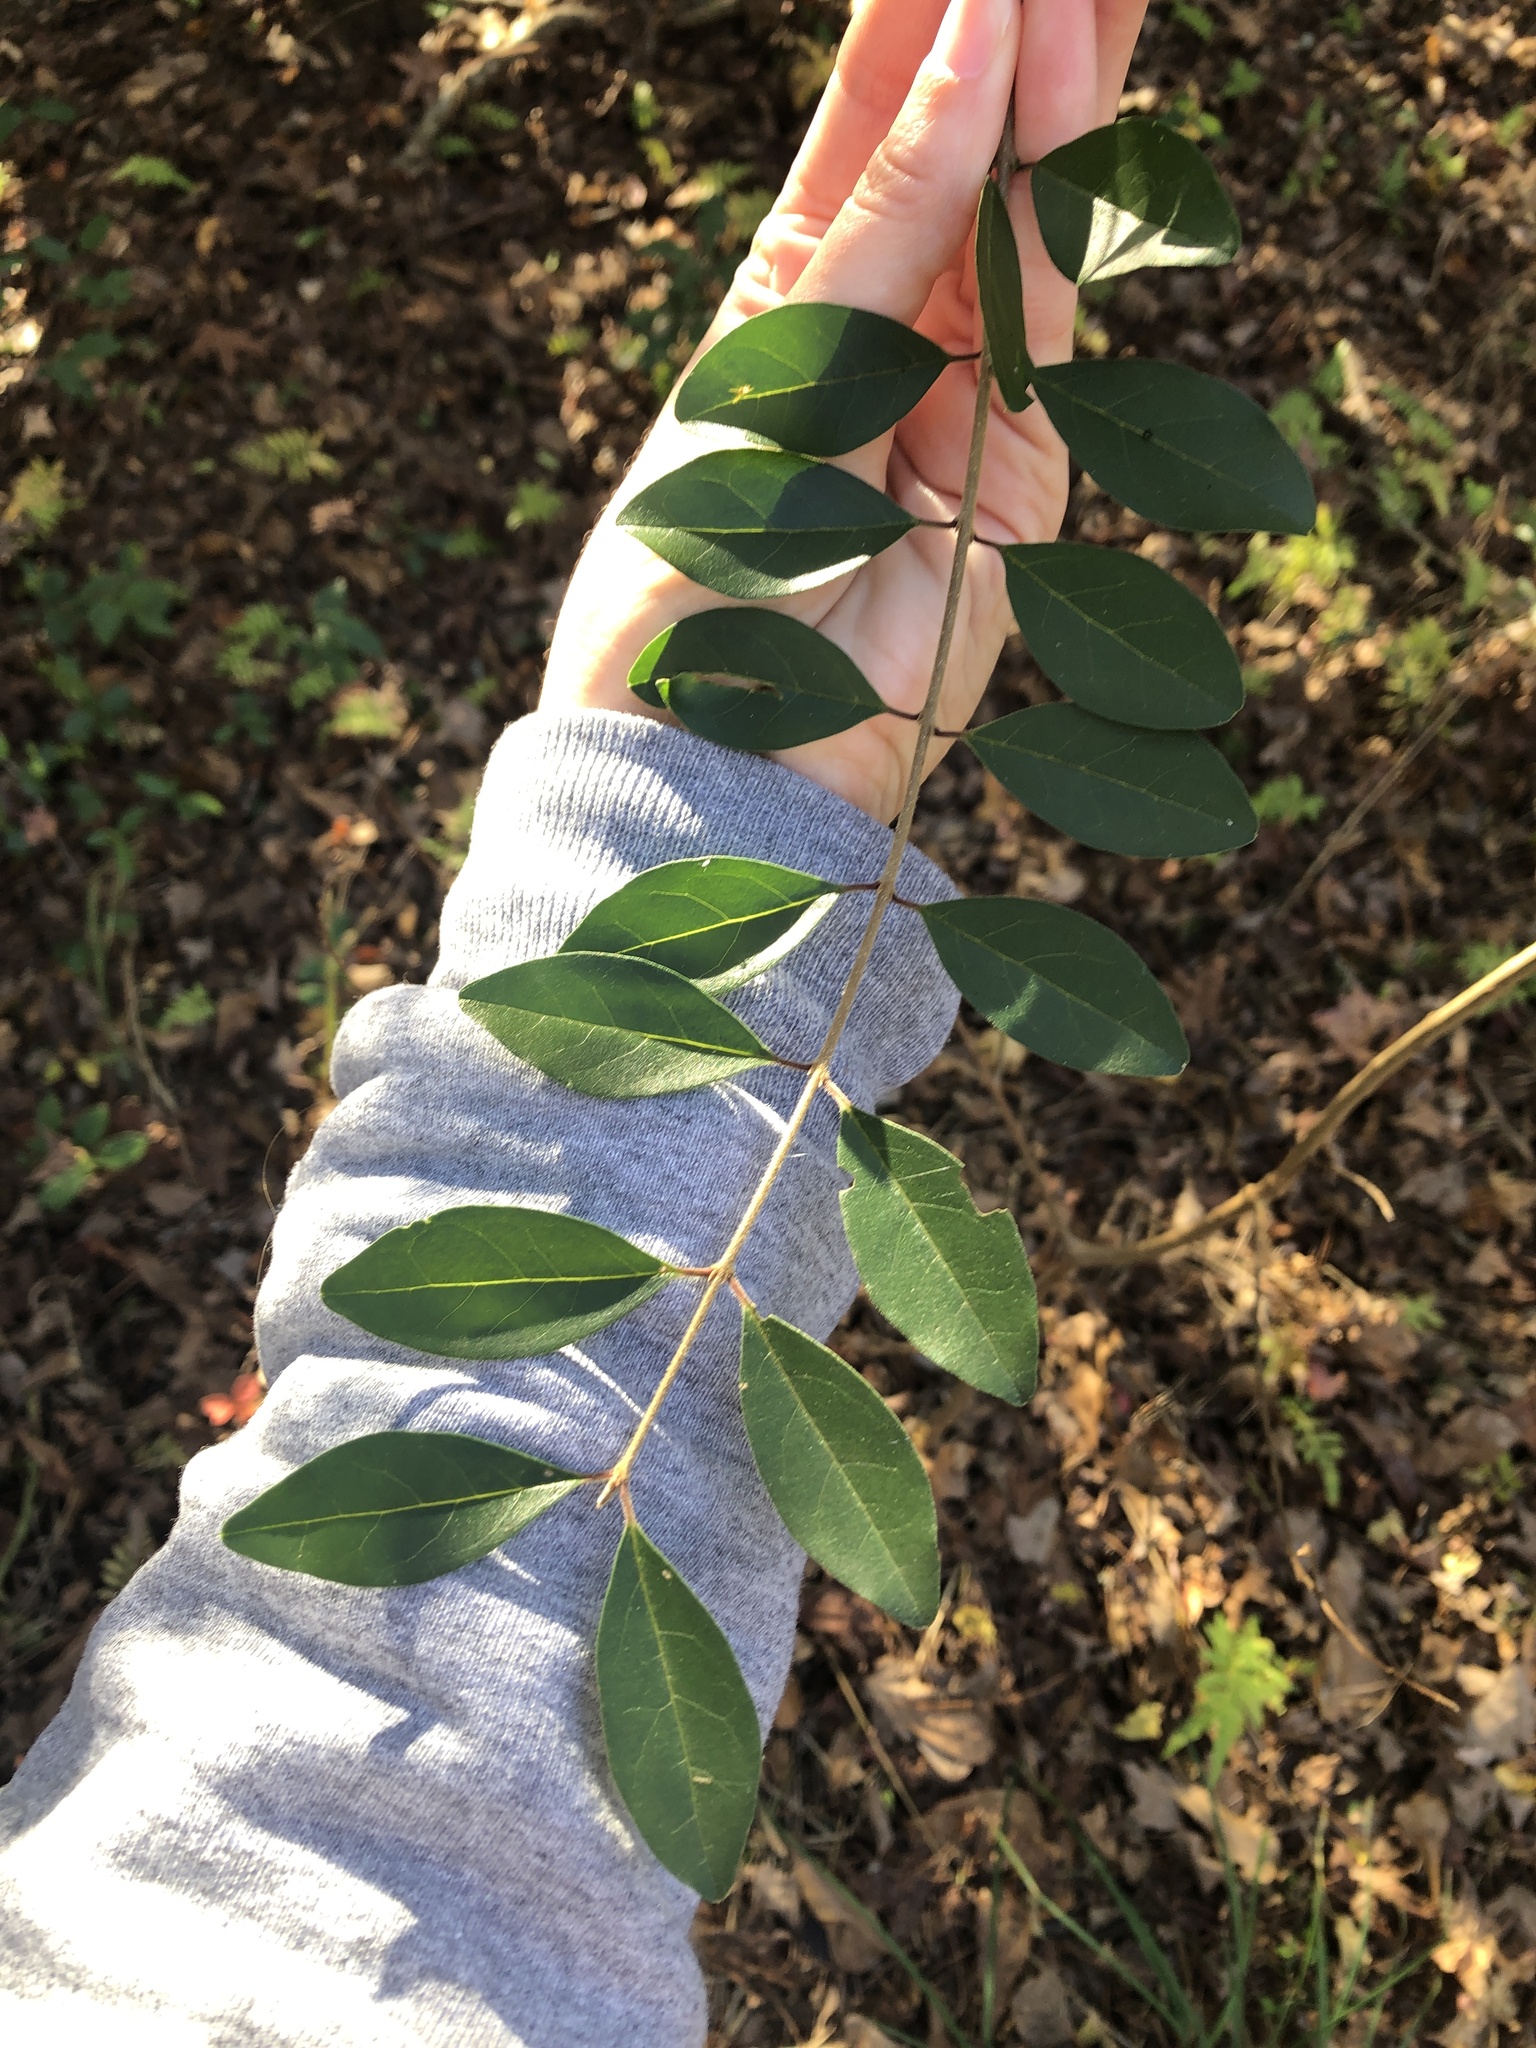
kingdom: Plantae
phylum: Tracheophyta
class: Magnoliopsida
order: Lamiales
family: Oleaceae
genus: Ligustrum
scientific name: Ligustrum sinense
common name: Chinese privet
